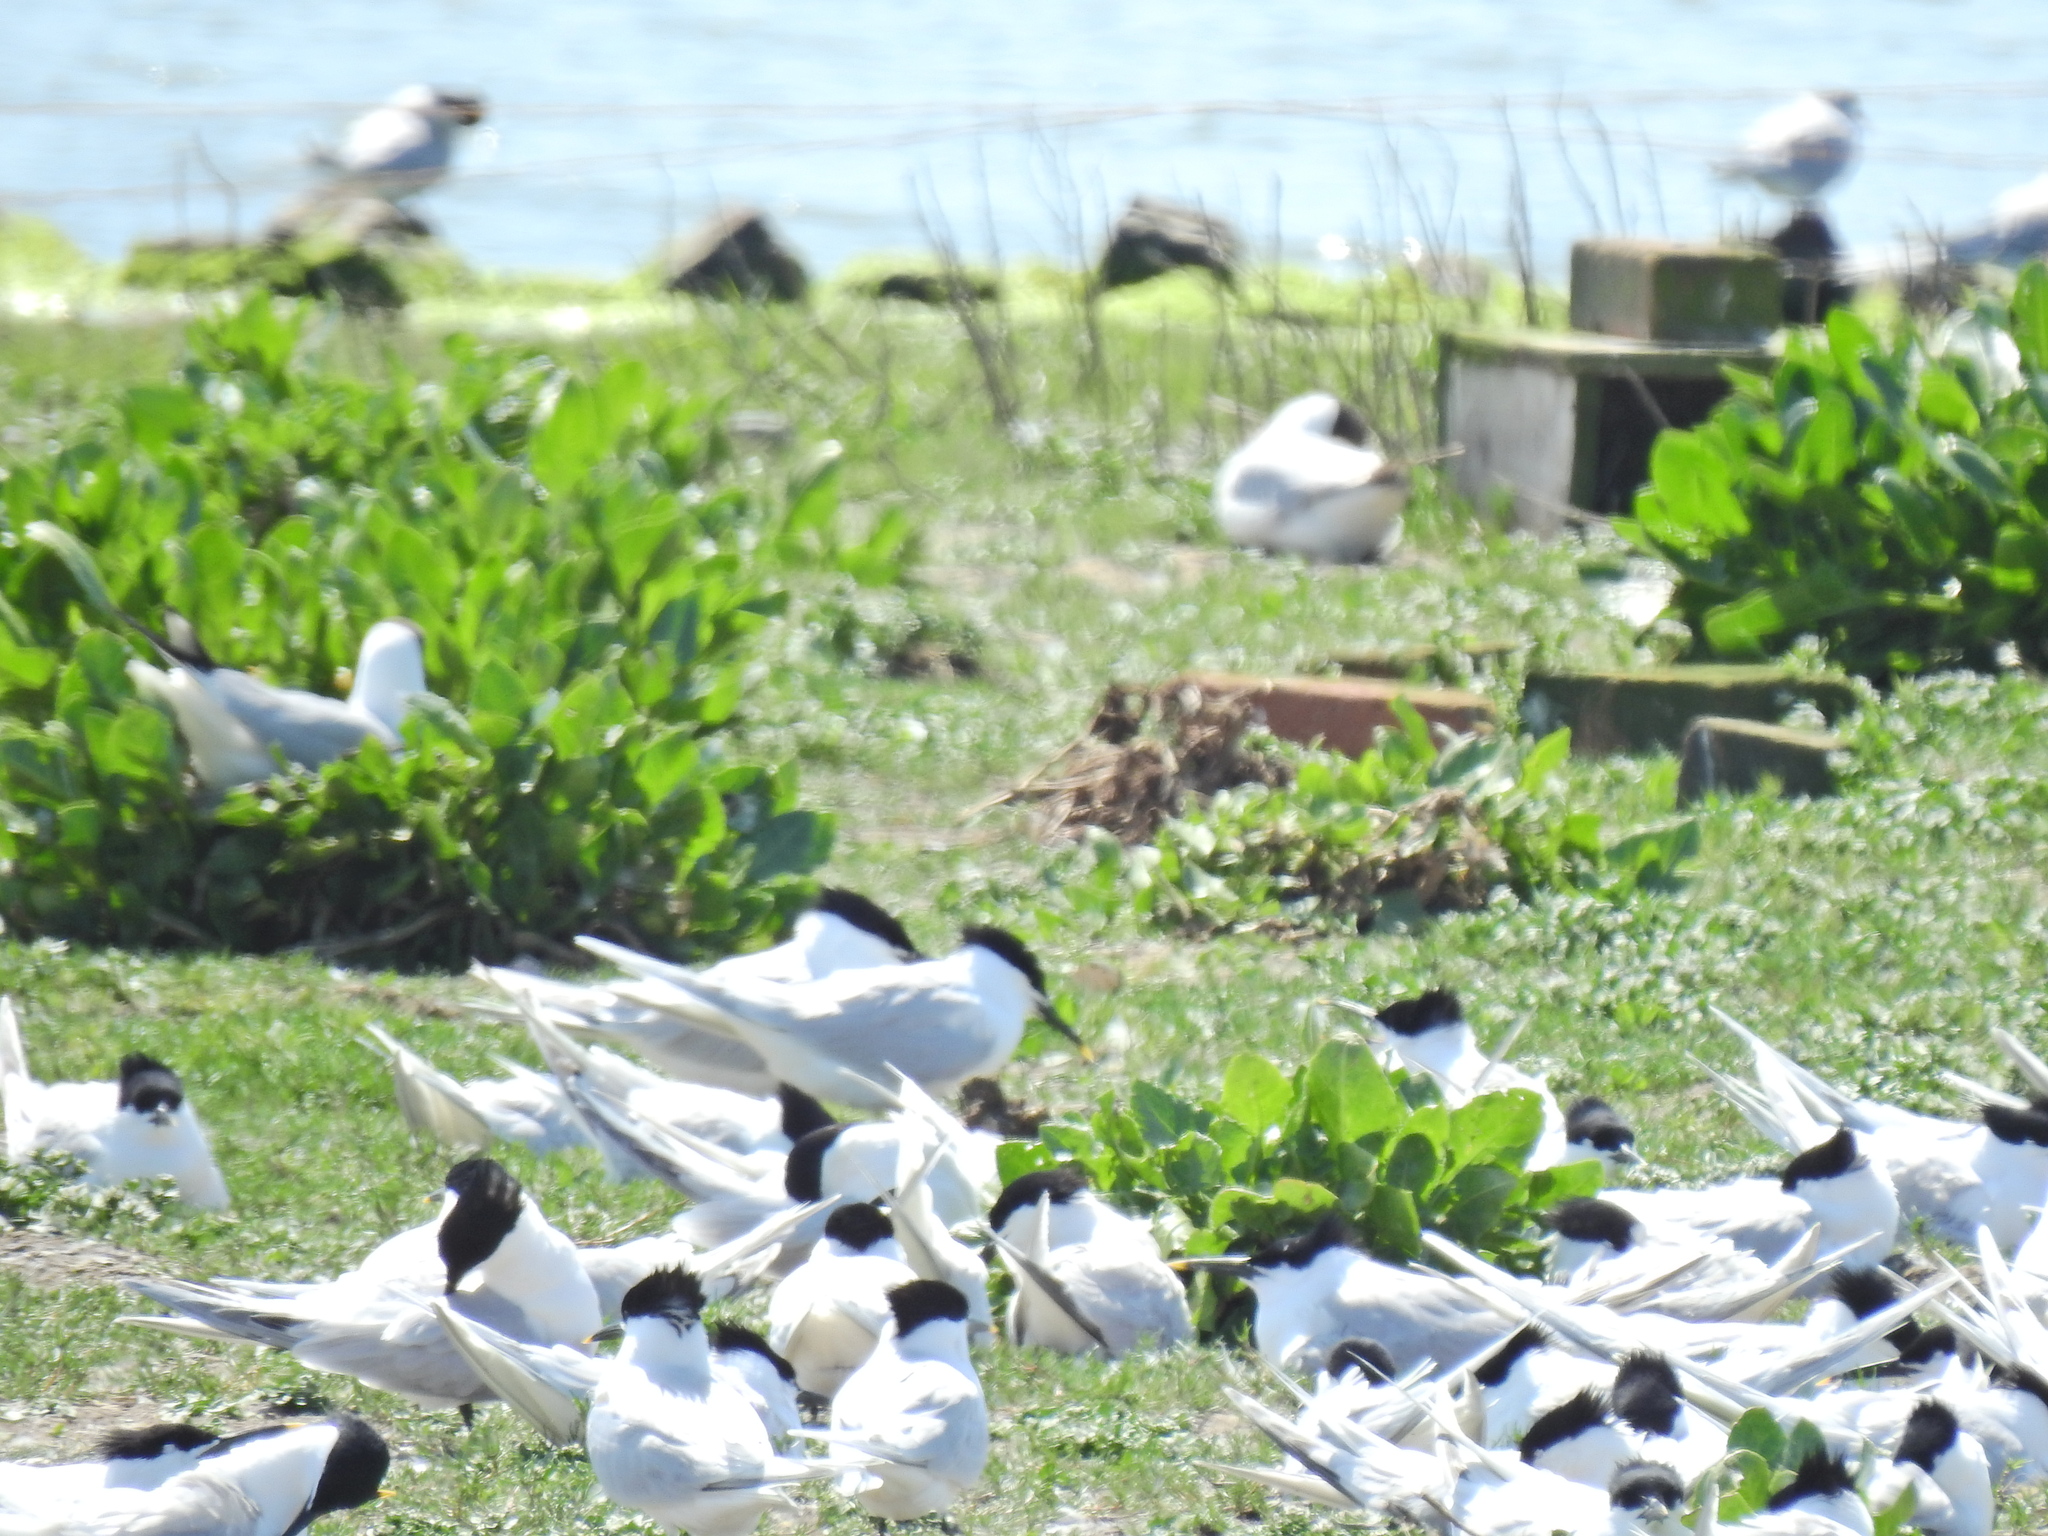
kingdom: Animalia
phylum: Chordata
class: Aves
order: Charadriiformes
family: Laridae
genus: Thalasseus
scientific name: Thalasseus sandvicensis
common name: Sandwich tern
